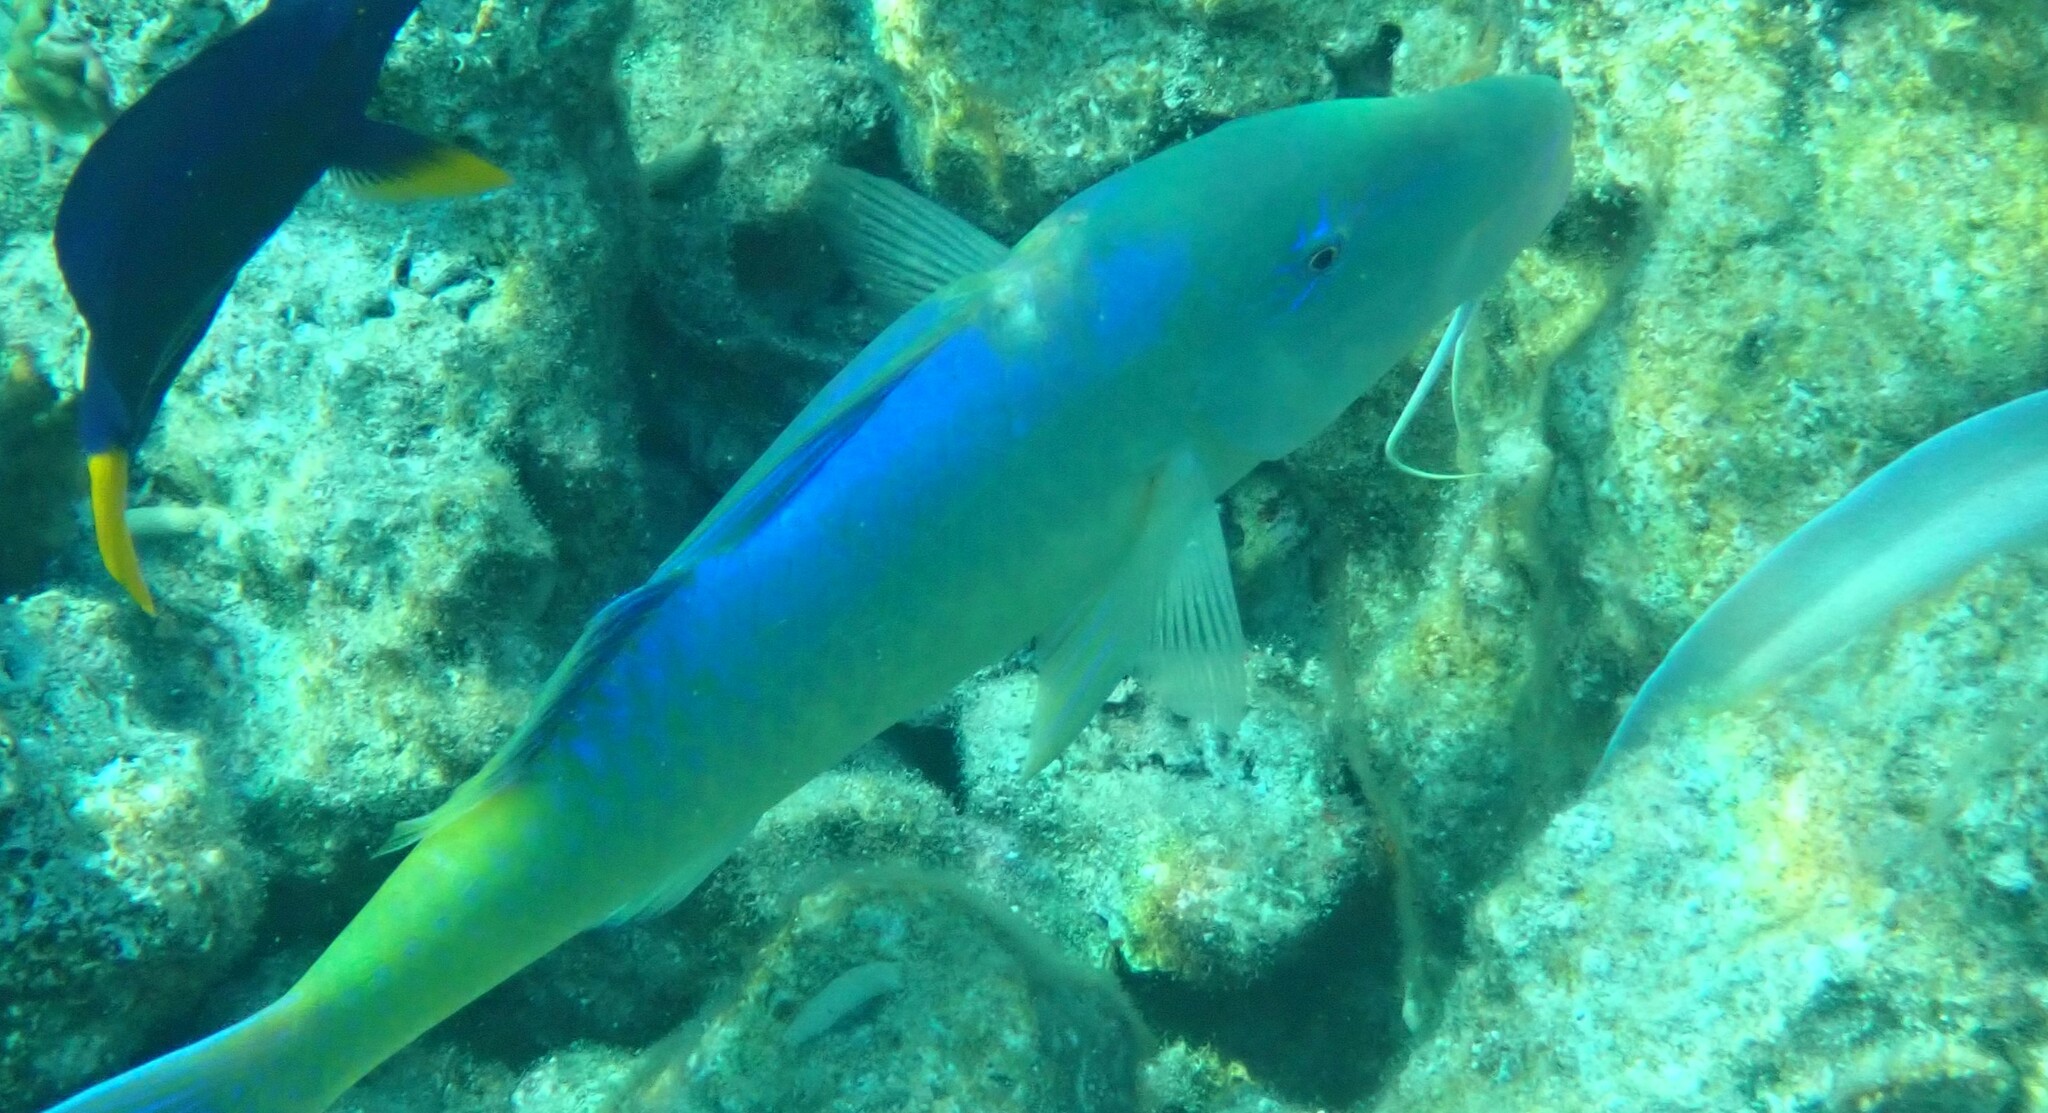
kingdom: Animalia
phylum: Chordata
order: Perciformes
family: Mullidae
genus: Parupeneus
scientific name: Parupeneus cyclostomus
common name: Goldsaddle goatfish
